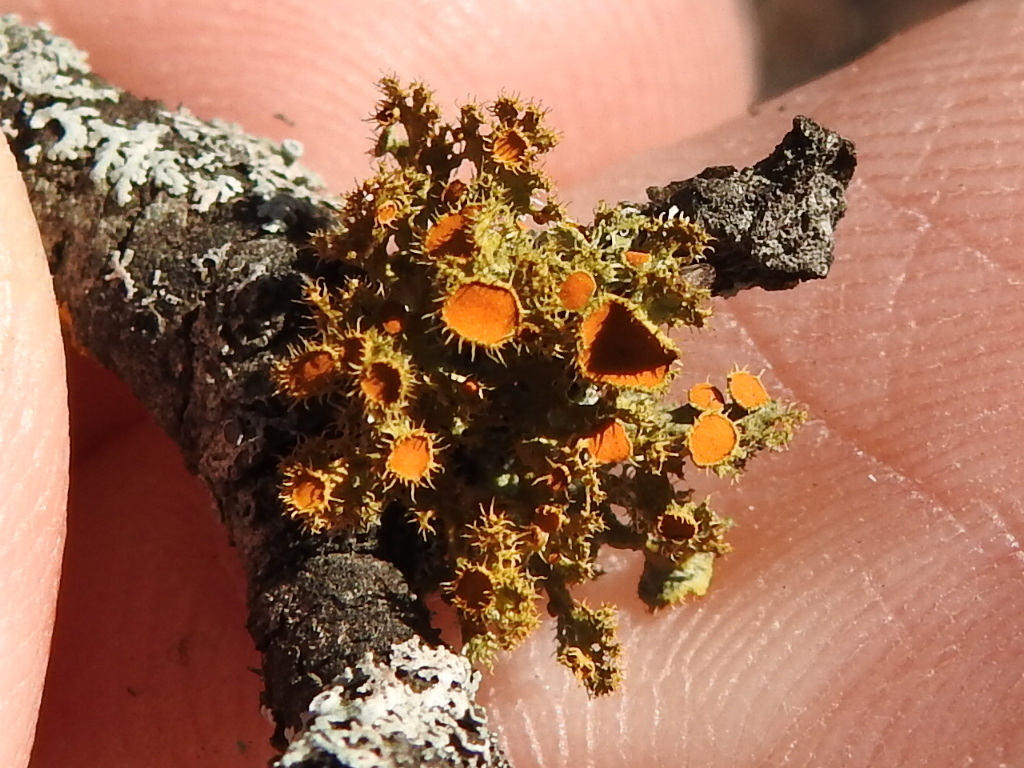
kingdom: Fungi
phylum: Ascomycota
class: Lecanoromycetes
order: Teloschistales
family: Teloschistaceae
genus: Niorma
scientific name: Niorma chrysophthalma
